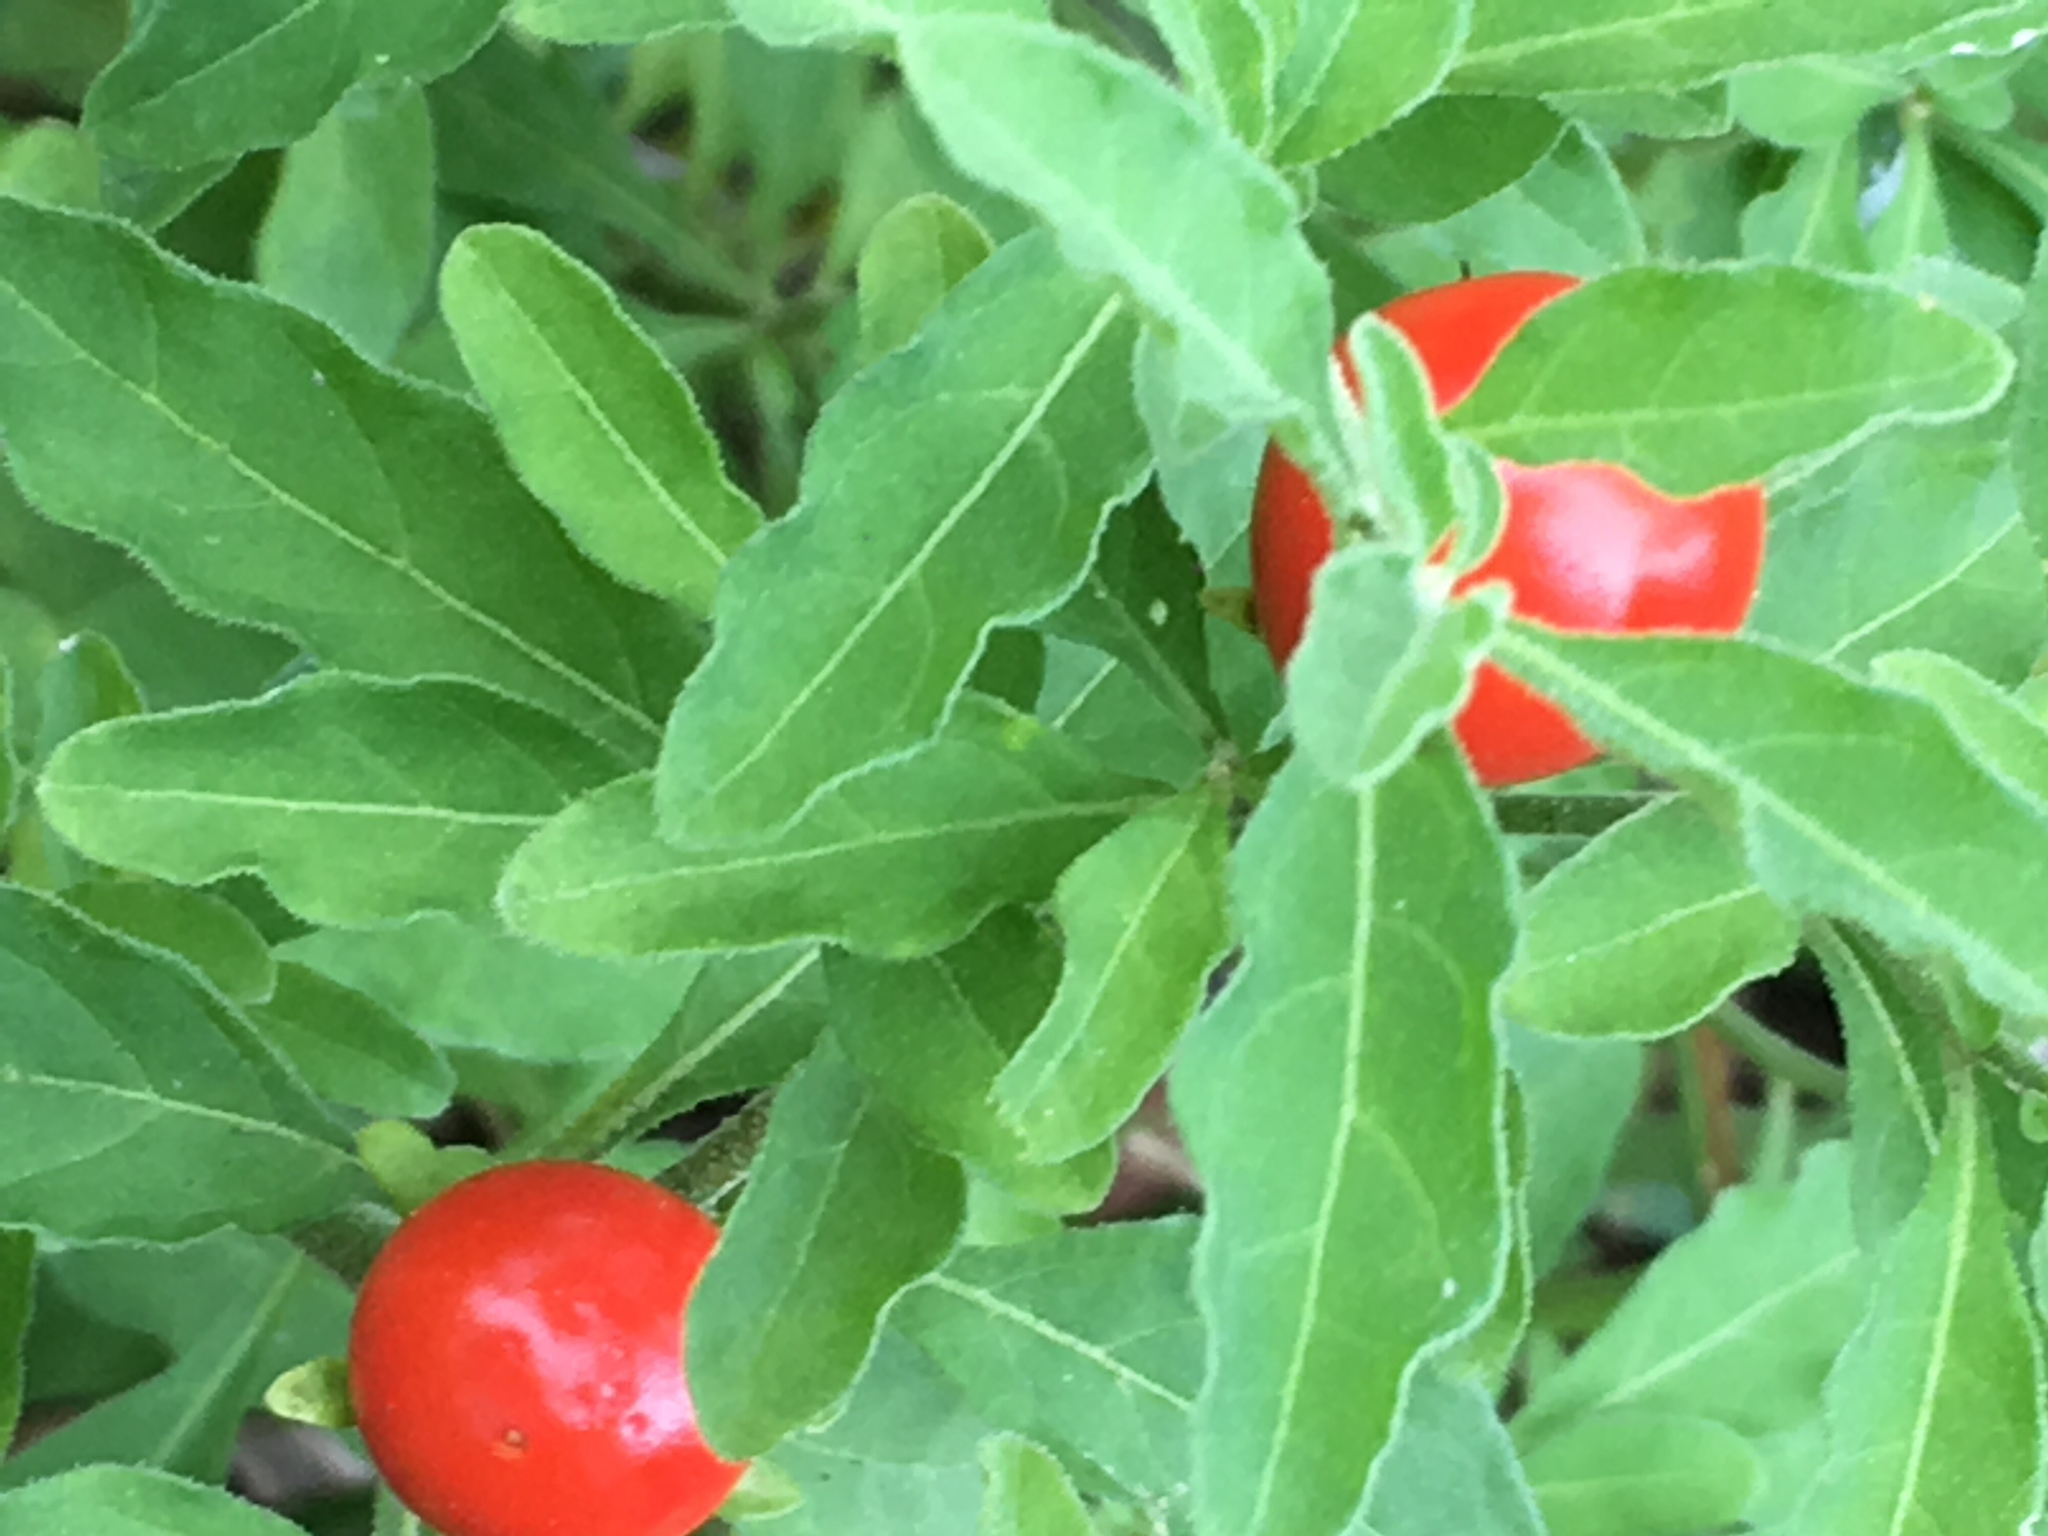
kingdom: Plantae
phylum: Tracheophyta
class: Magnoliopsida
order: Solanales
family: Solanaceae
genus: Solanum
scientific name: Solanum pseudocapsicum
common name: Jerusalem cherry
